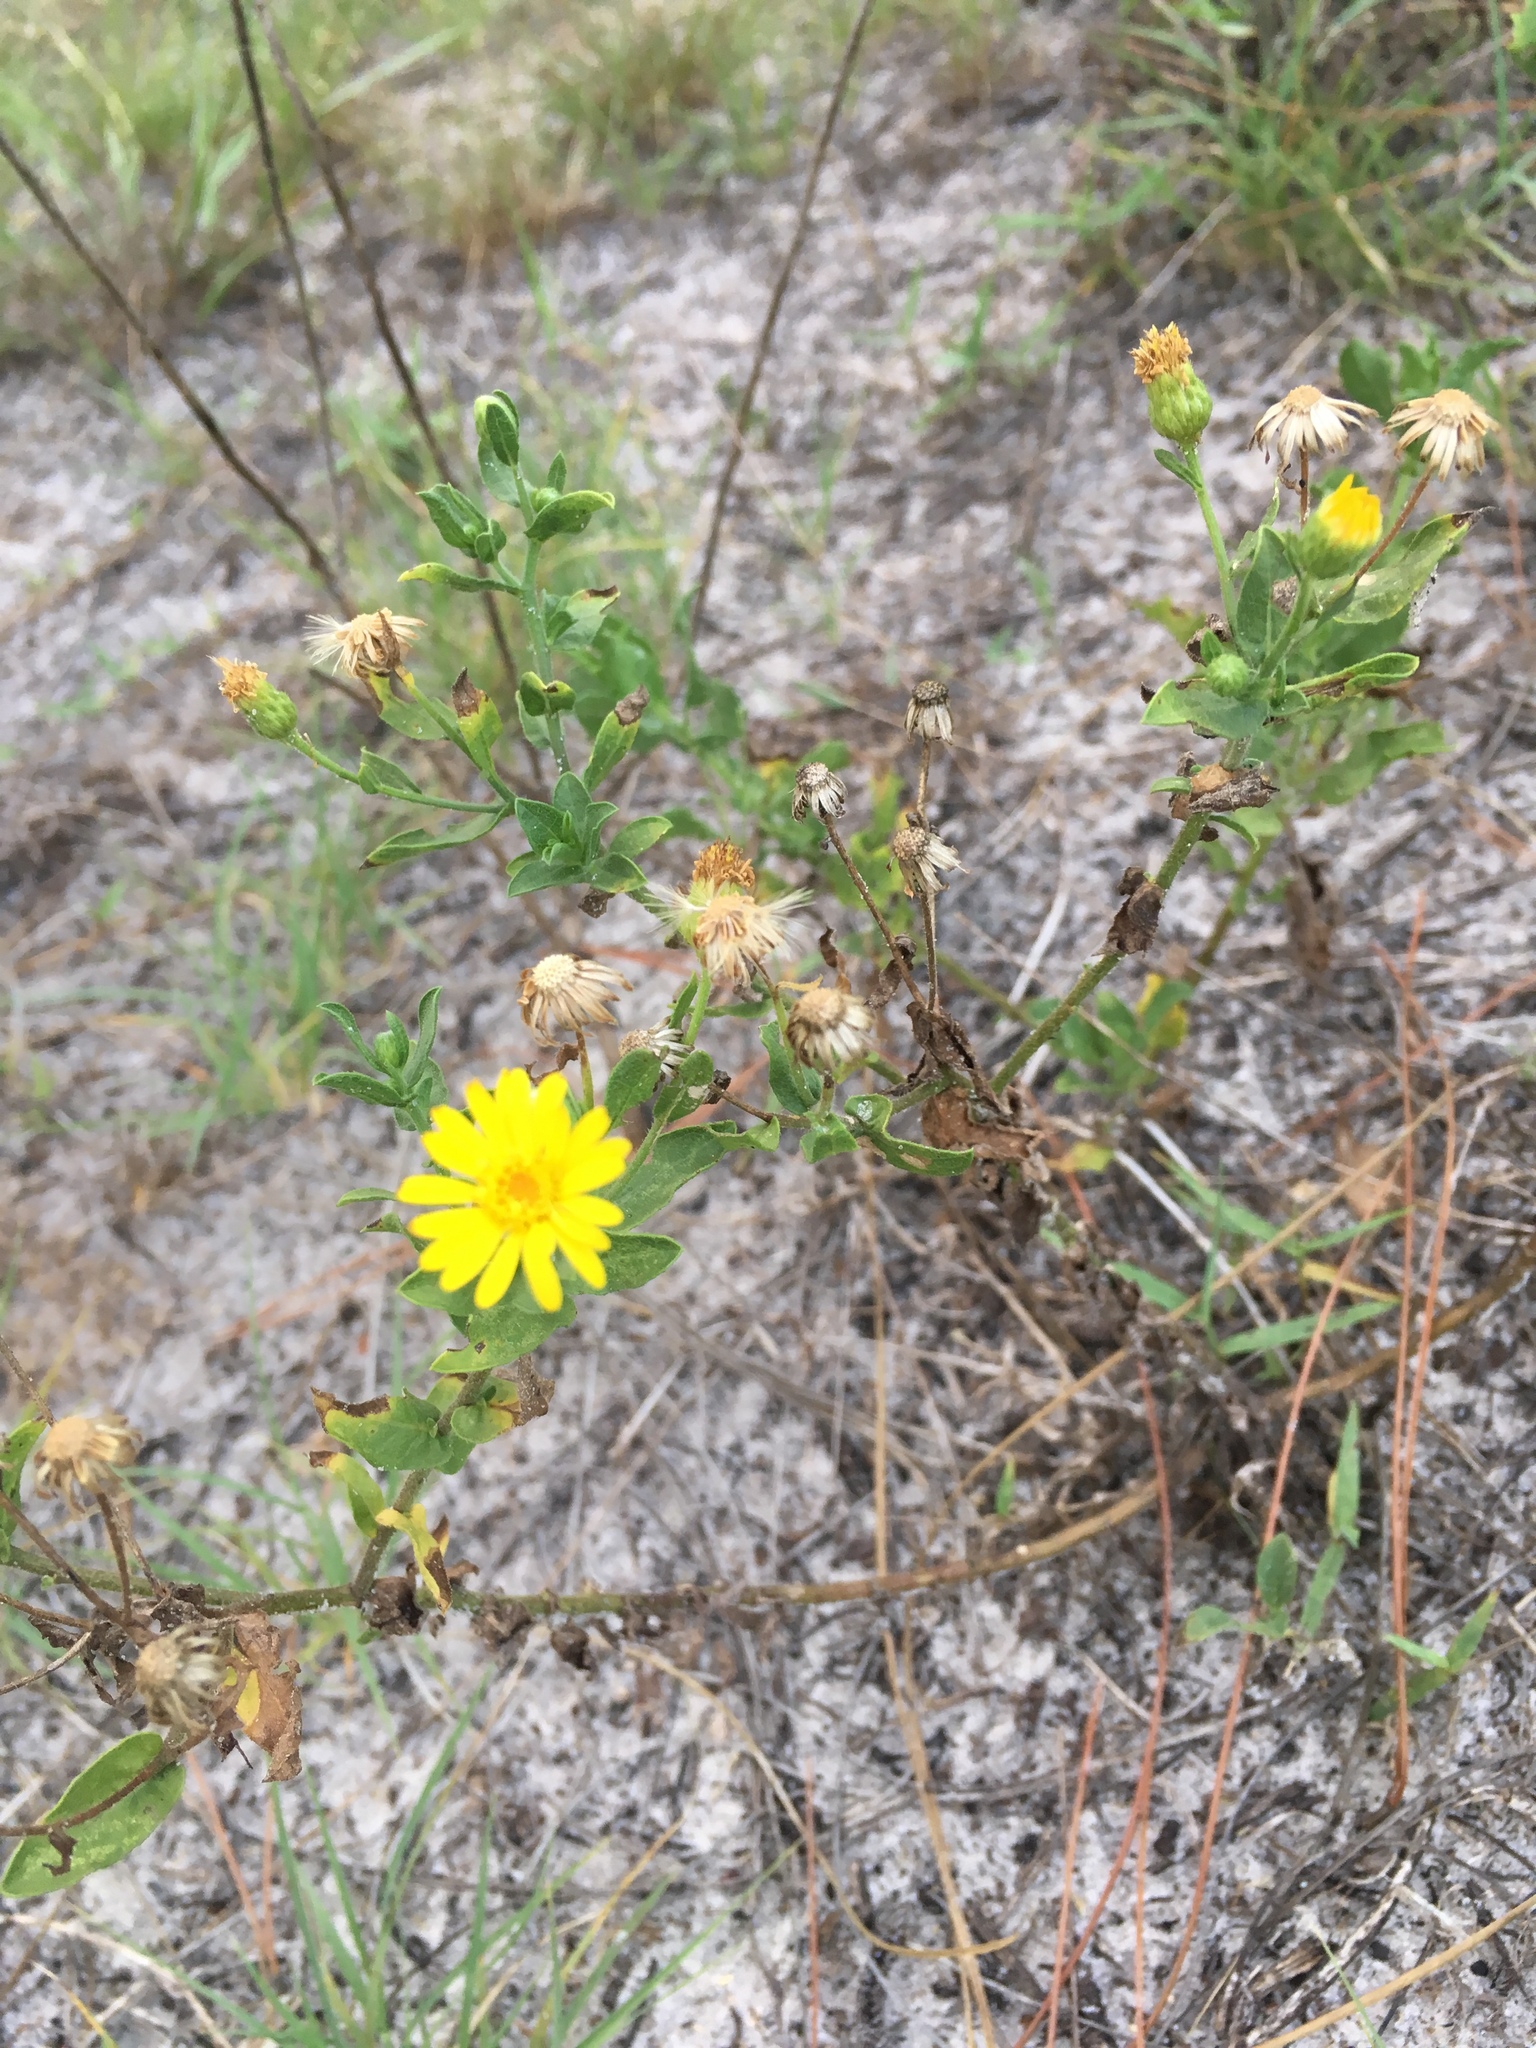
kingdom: Plantae
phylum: Tracheophyta
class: Magnoliopsida
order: Asterales
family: Asteraceae
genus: Heterotheca
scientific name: Heterotheca subaxillaris
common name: Camphorweed
